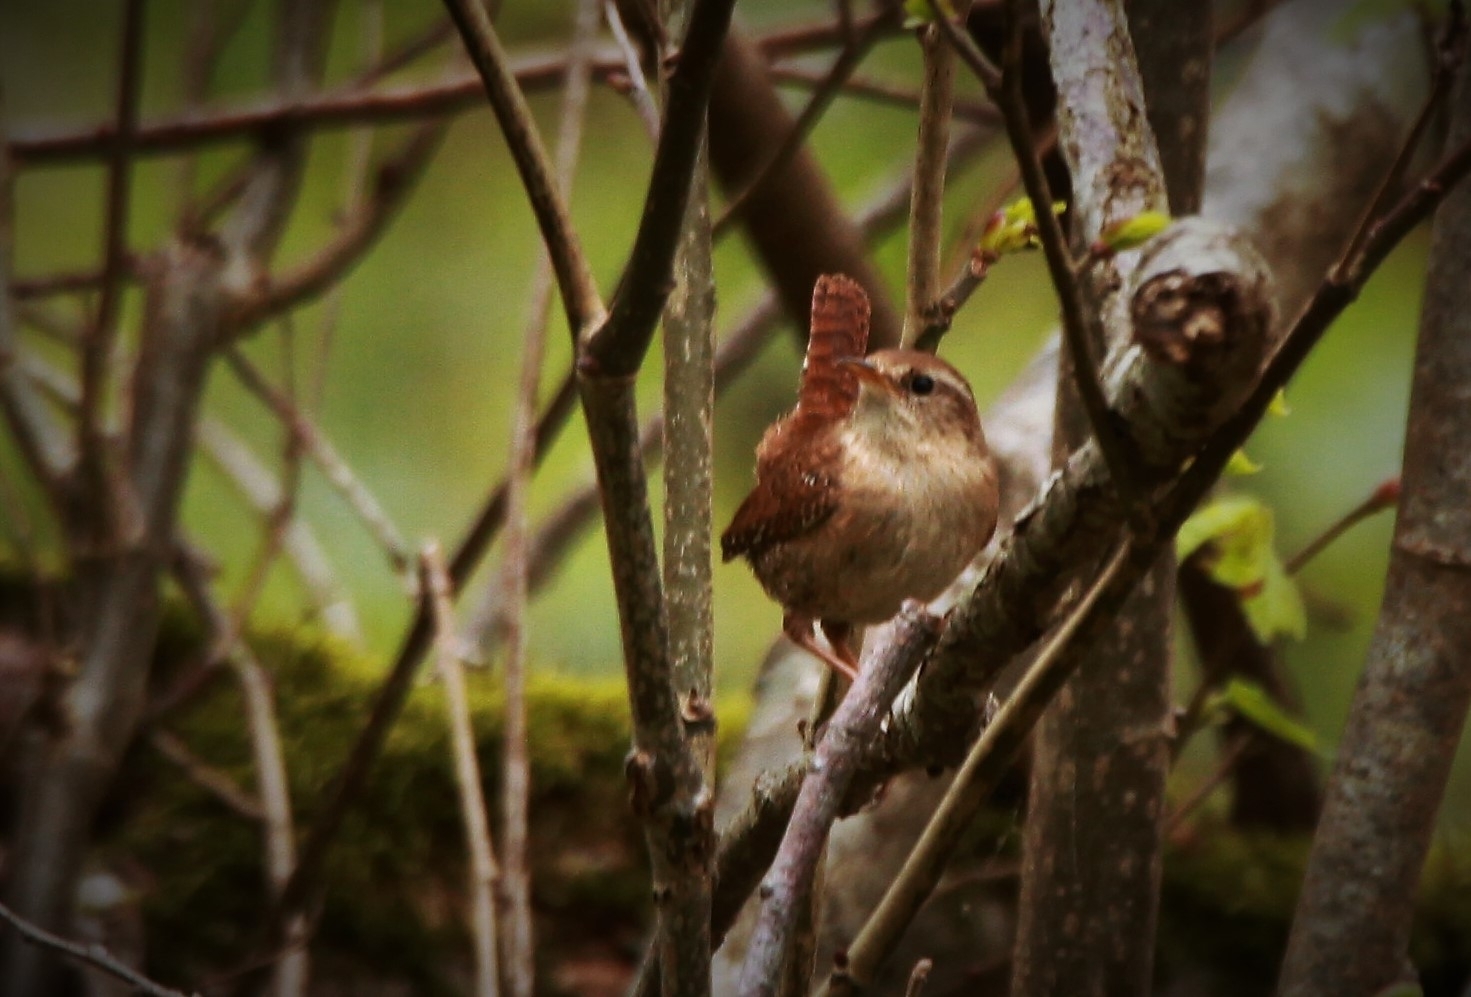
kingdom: Animalia
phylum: Chordata
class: Aves
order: Passeriformes
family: Troglodytidae
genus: Troglodytes
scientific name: Troglodytes troglodytes
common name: Eurasian wren
